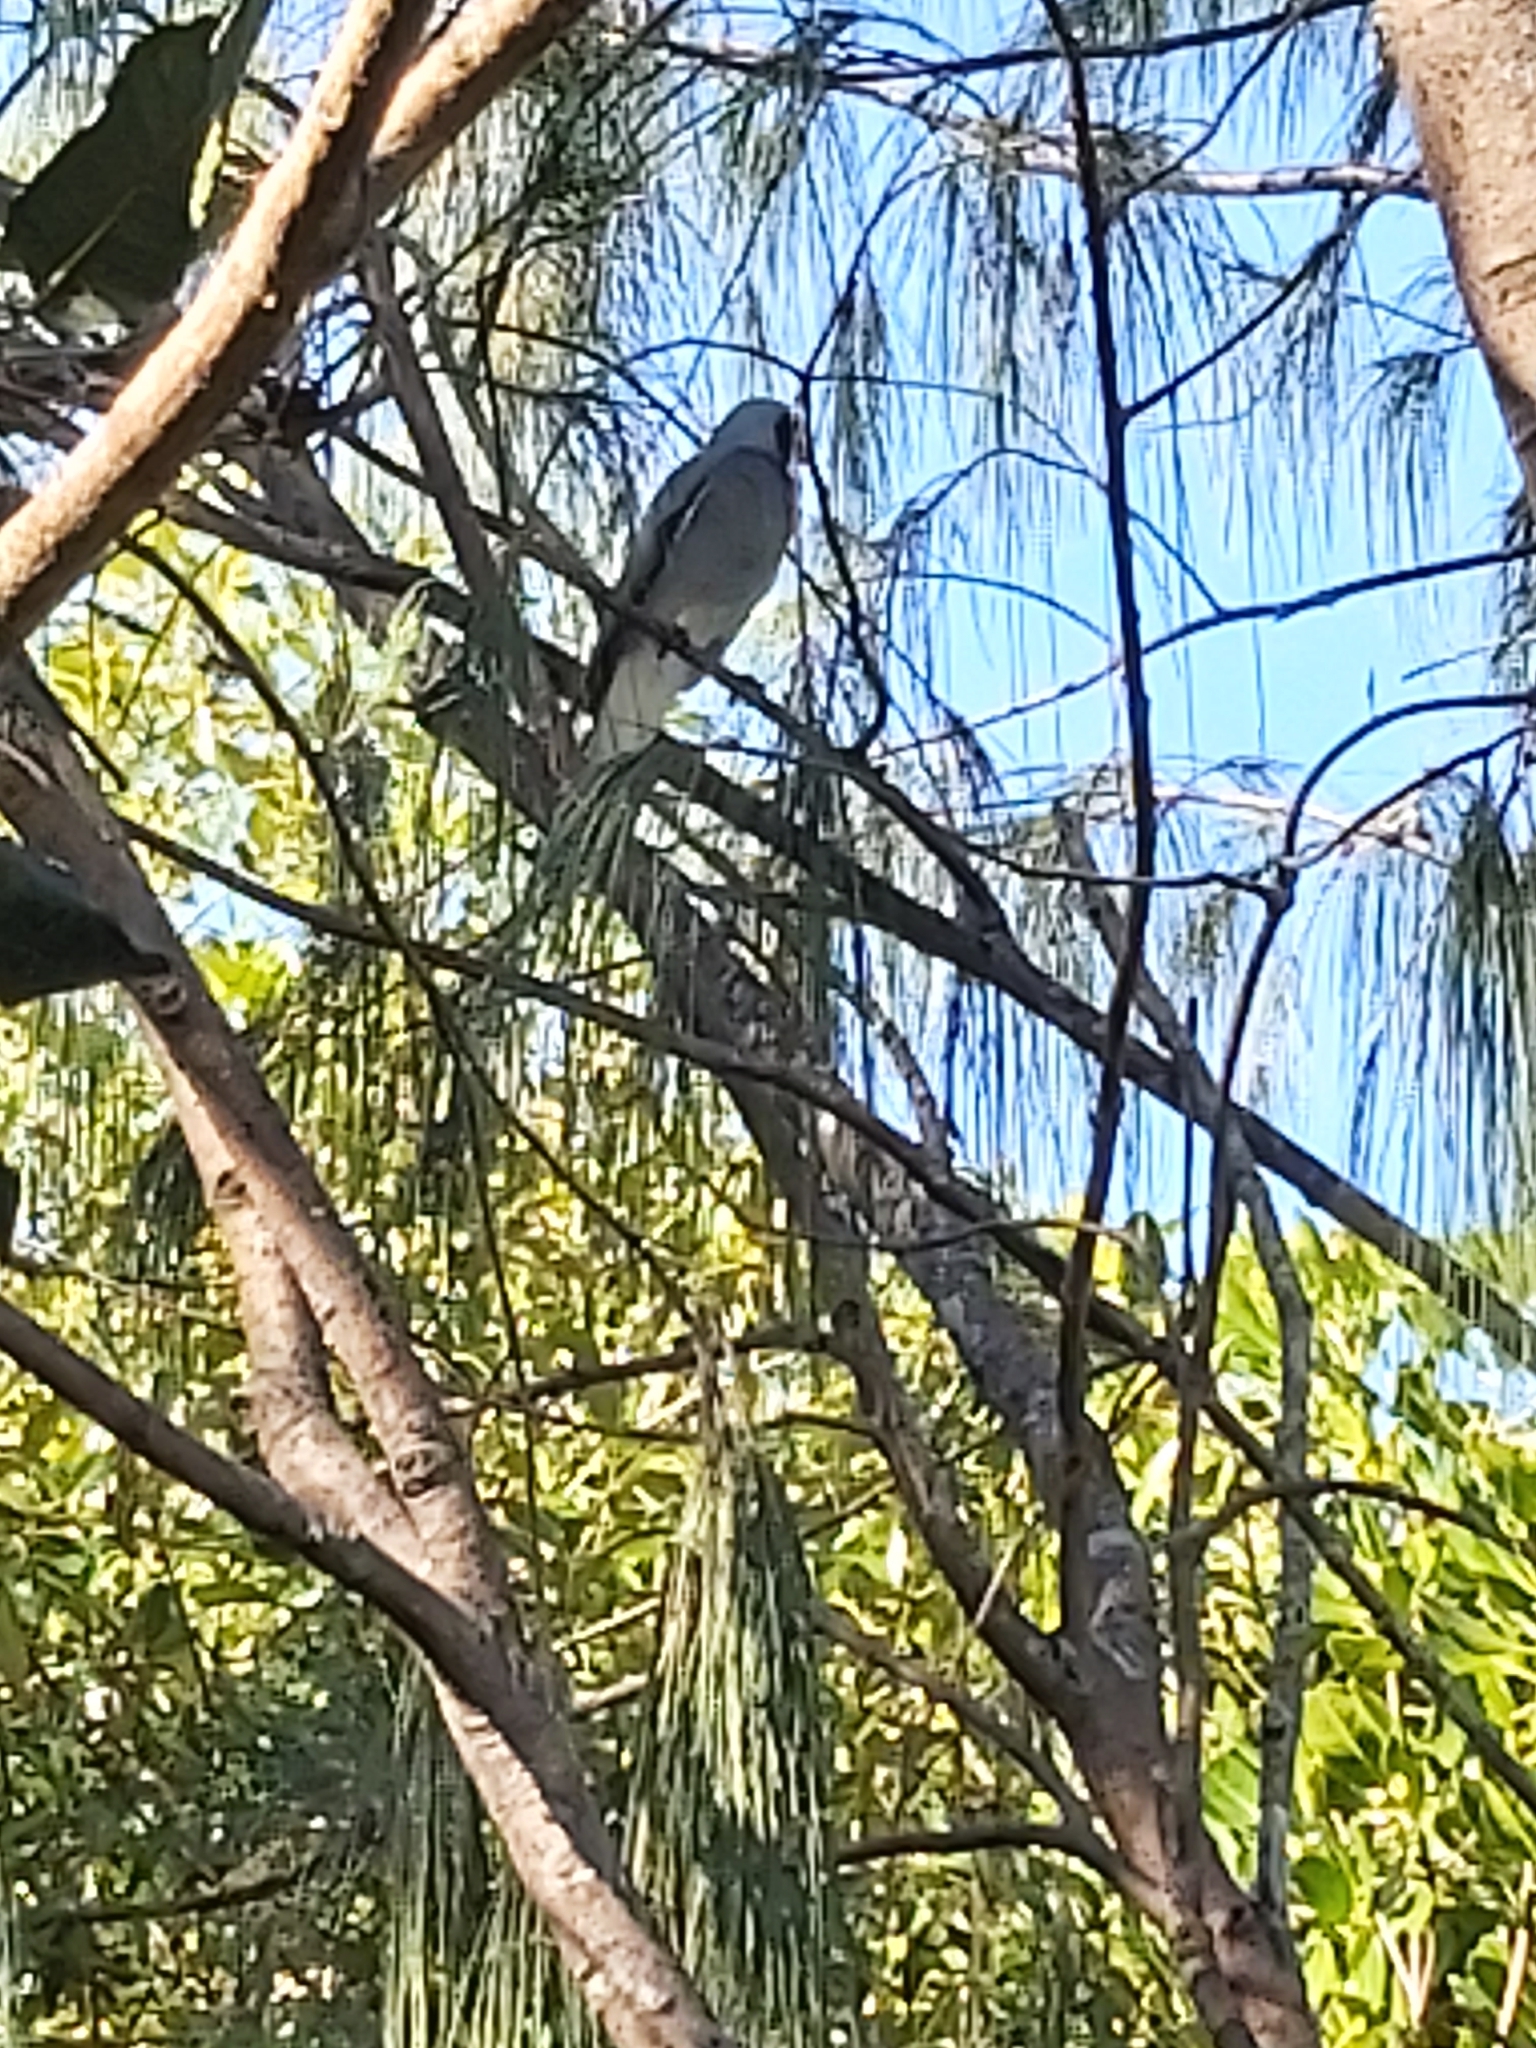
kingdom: Animalia
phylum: Chordata
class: Aves
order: Passeriformes
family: Campephagidae
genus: Coracina
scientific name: Coracina novaehollandiae
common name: Black-faced cuckooshrike
